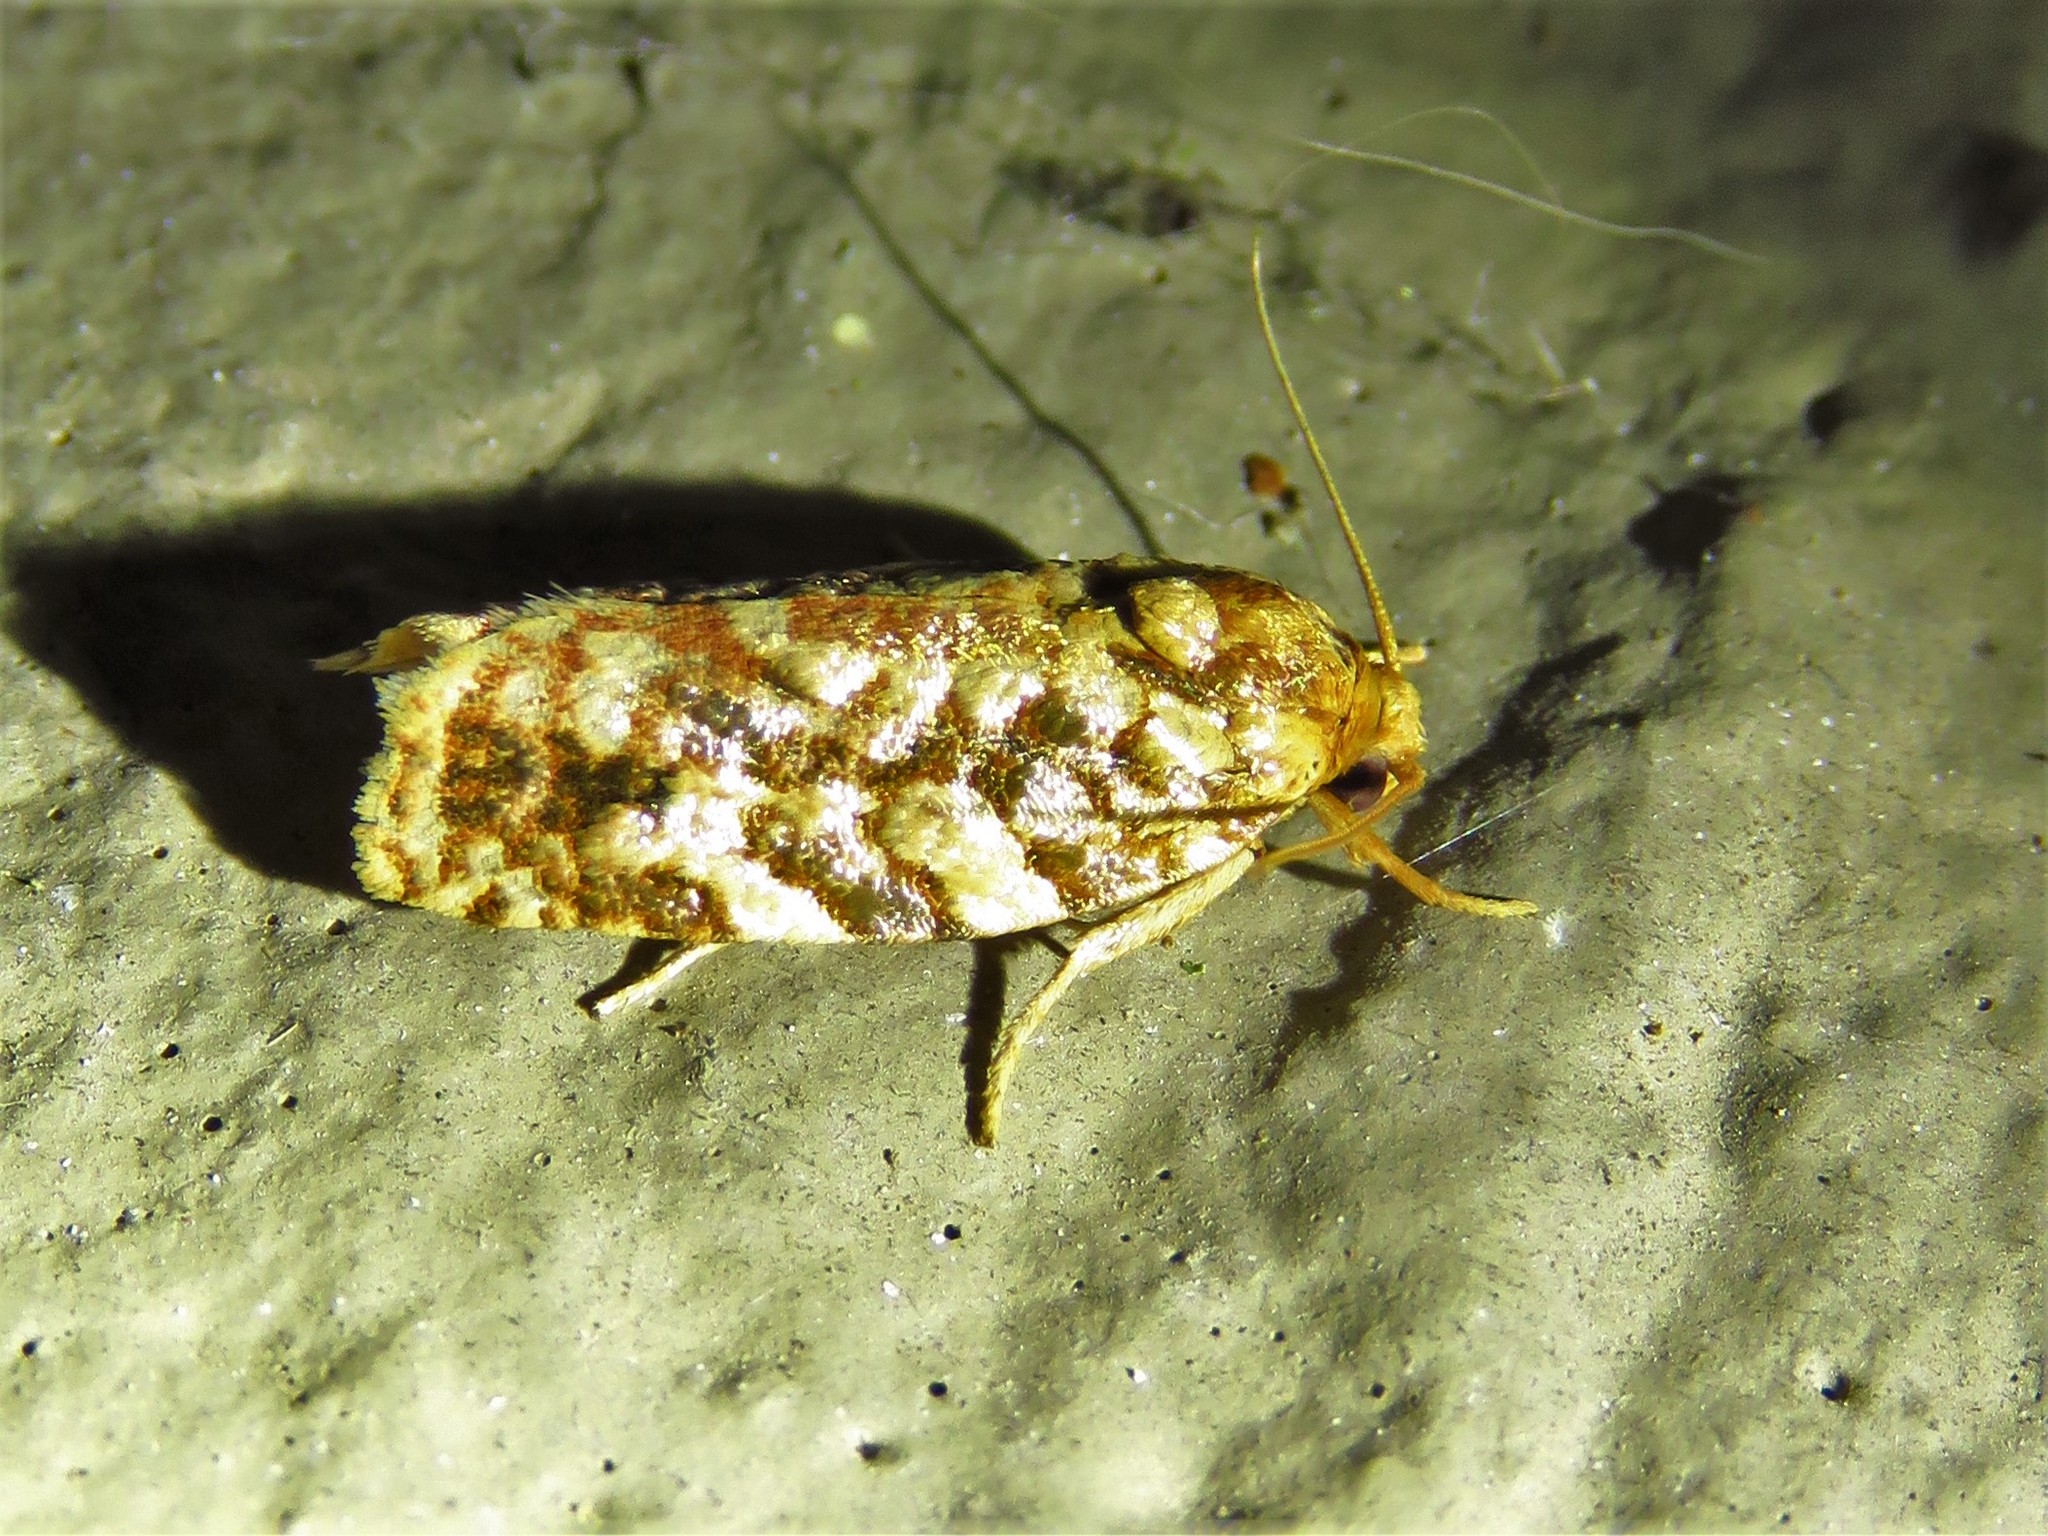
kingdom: Animalia
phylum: Arthropoda
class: Insecta
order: Lepidoptera
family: Tortricidae
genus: Choristoneura
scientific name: Choristoneura houstonana
